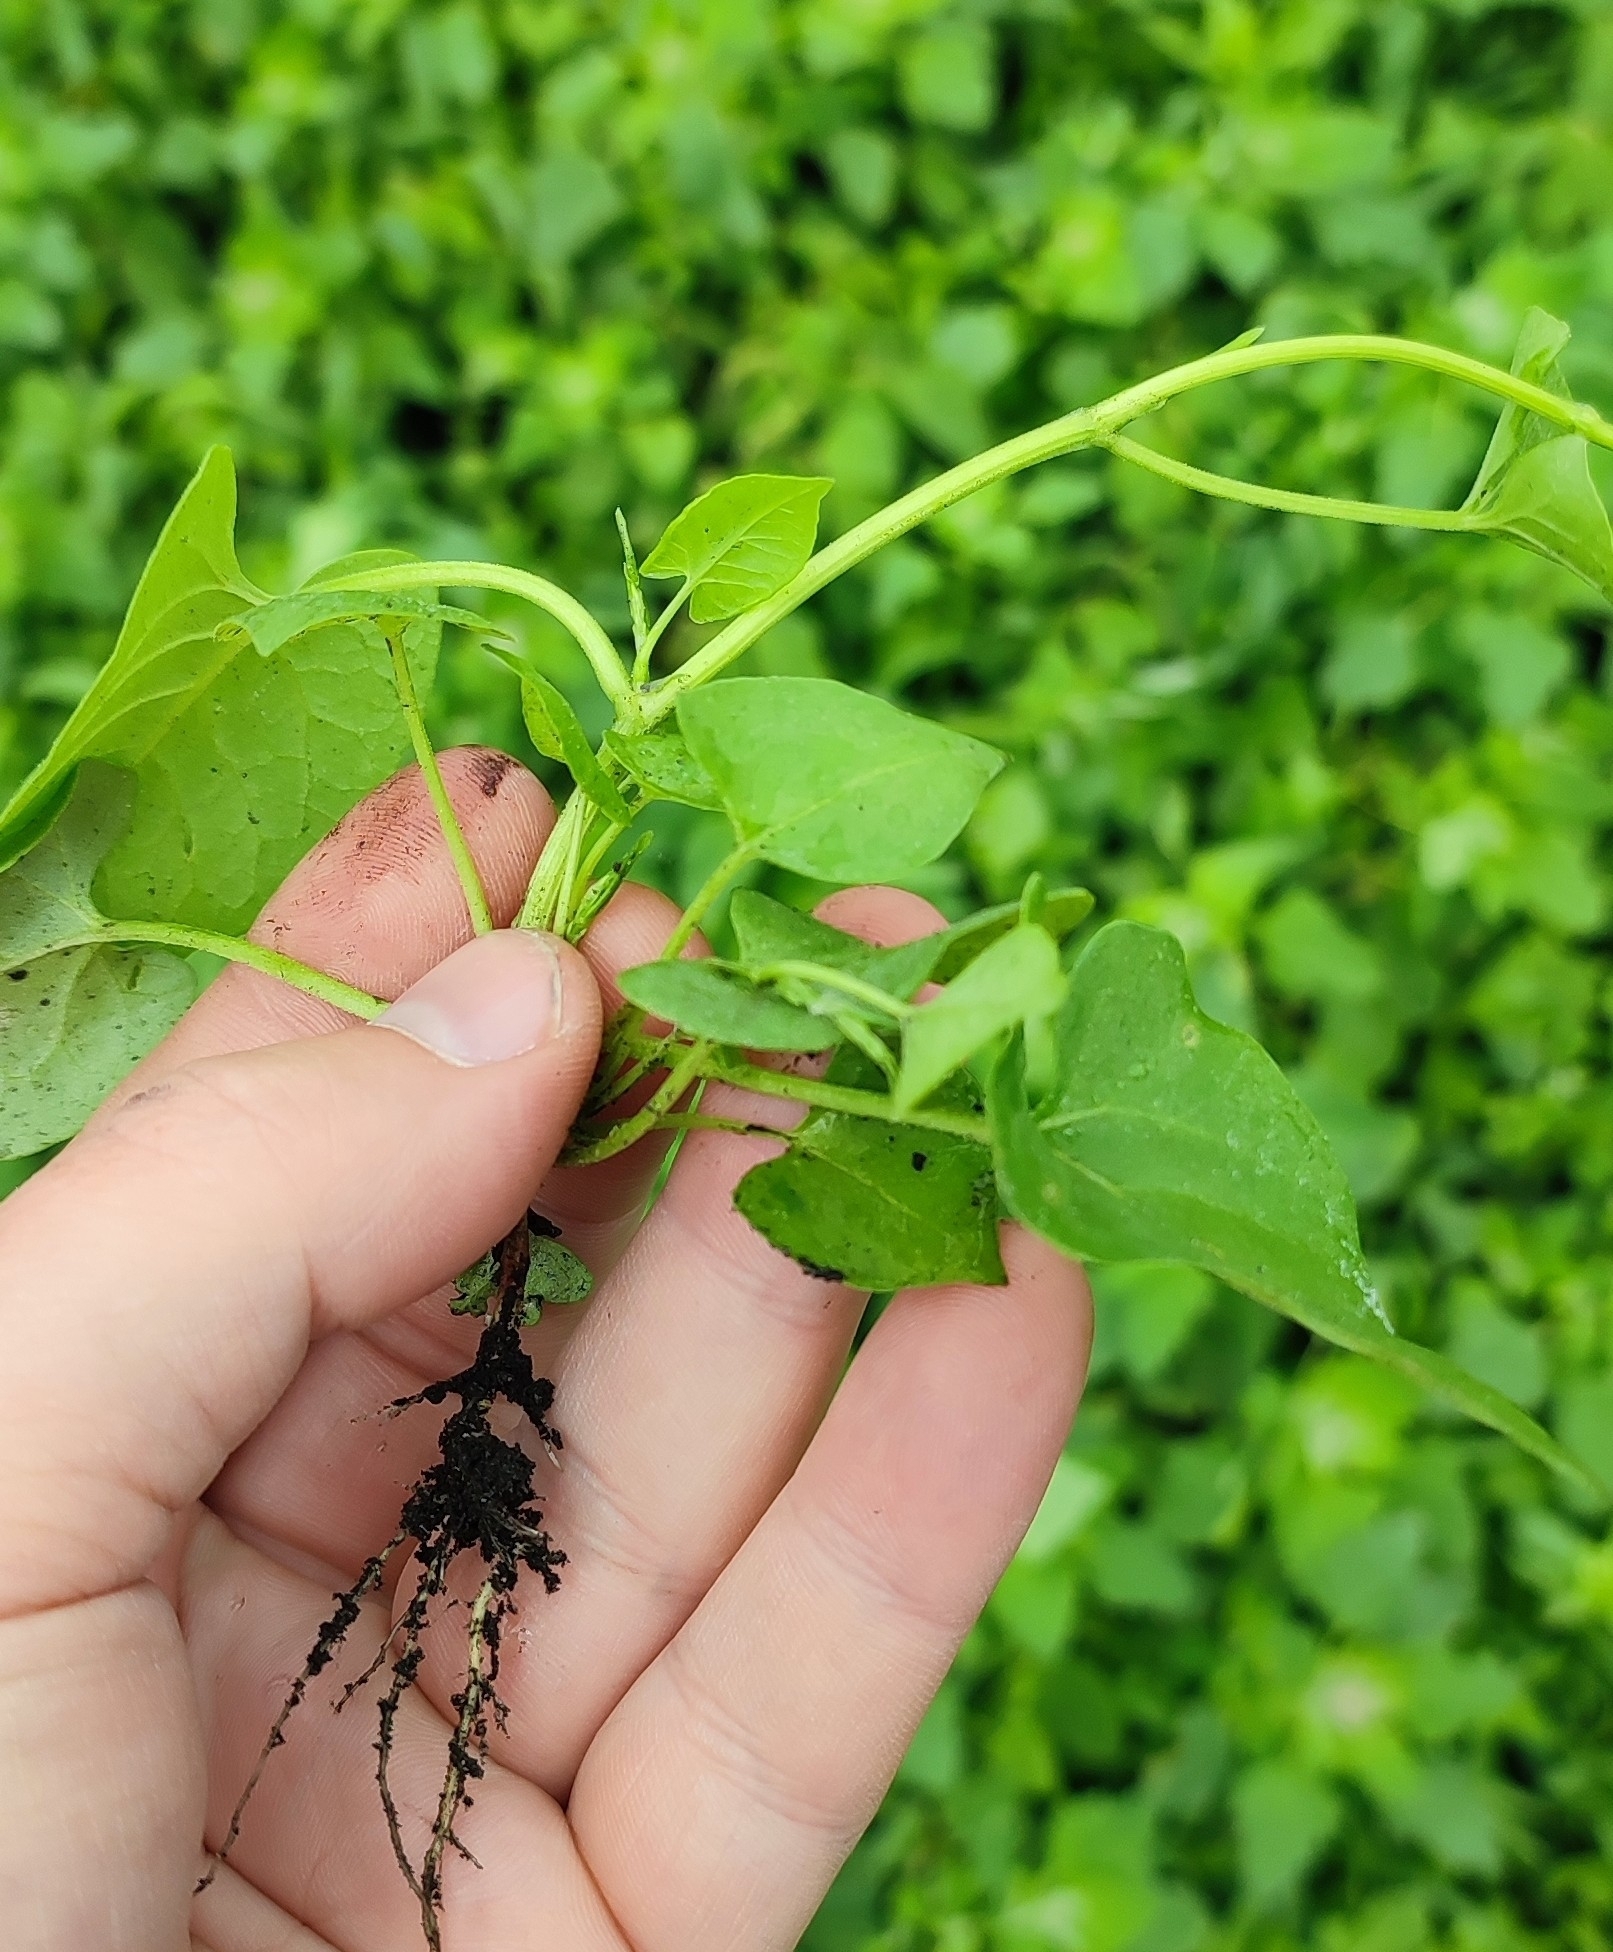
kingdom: Plantae
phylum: Tracheophyta
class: Magnoliopsida
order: Caryophyllales
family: Polygonaceae
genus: Fallopia
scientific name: Fallopia convolvulus
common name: Black bindweed
